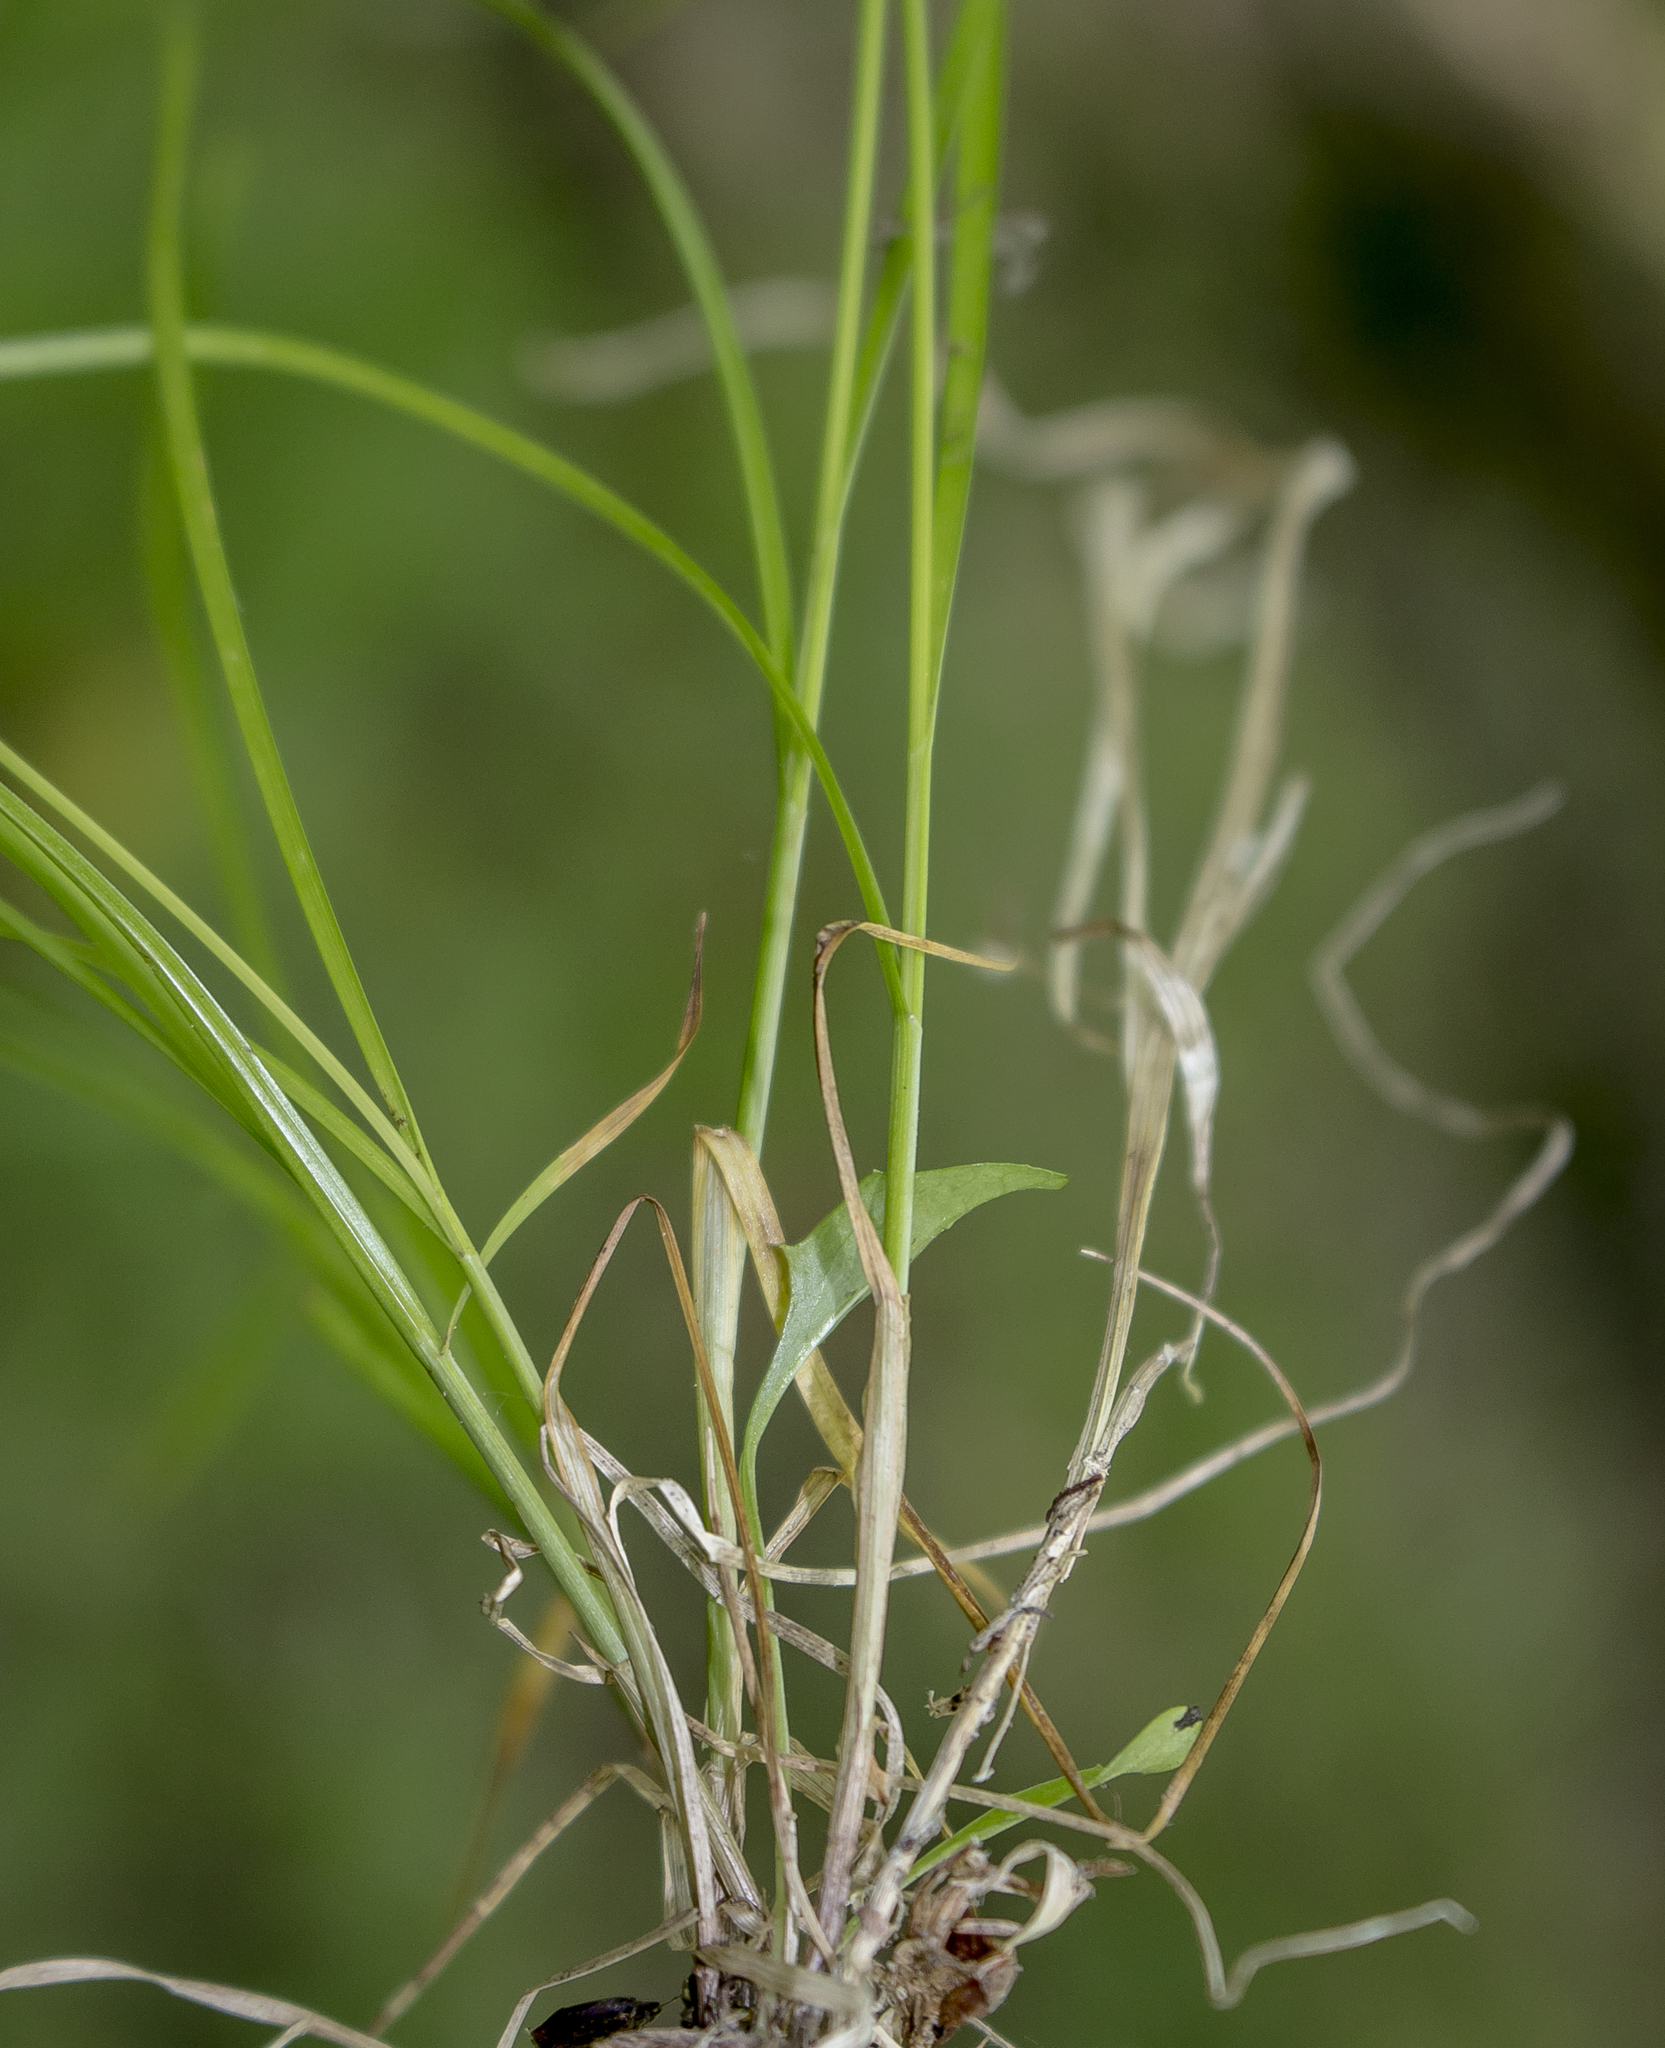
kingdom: Plantae
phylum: Tracheophyta
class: Liliopsida
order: Poales
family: Cyperaceae
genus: Carex
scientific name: Carex radiata
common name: Eastern star sedge
